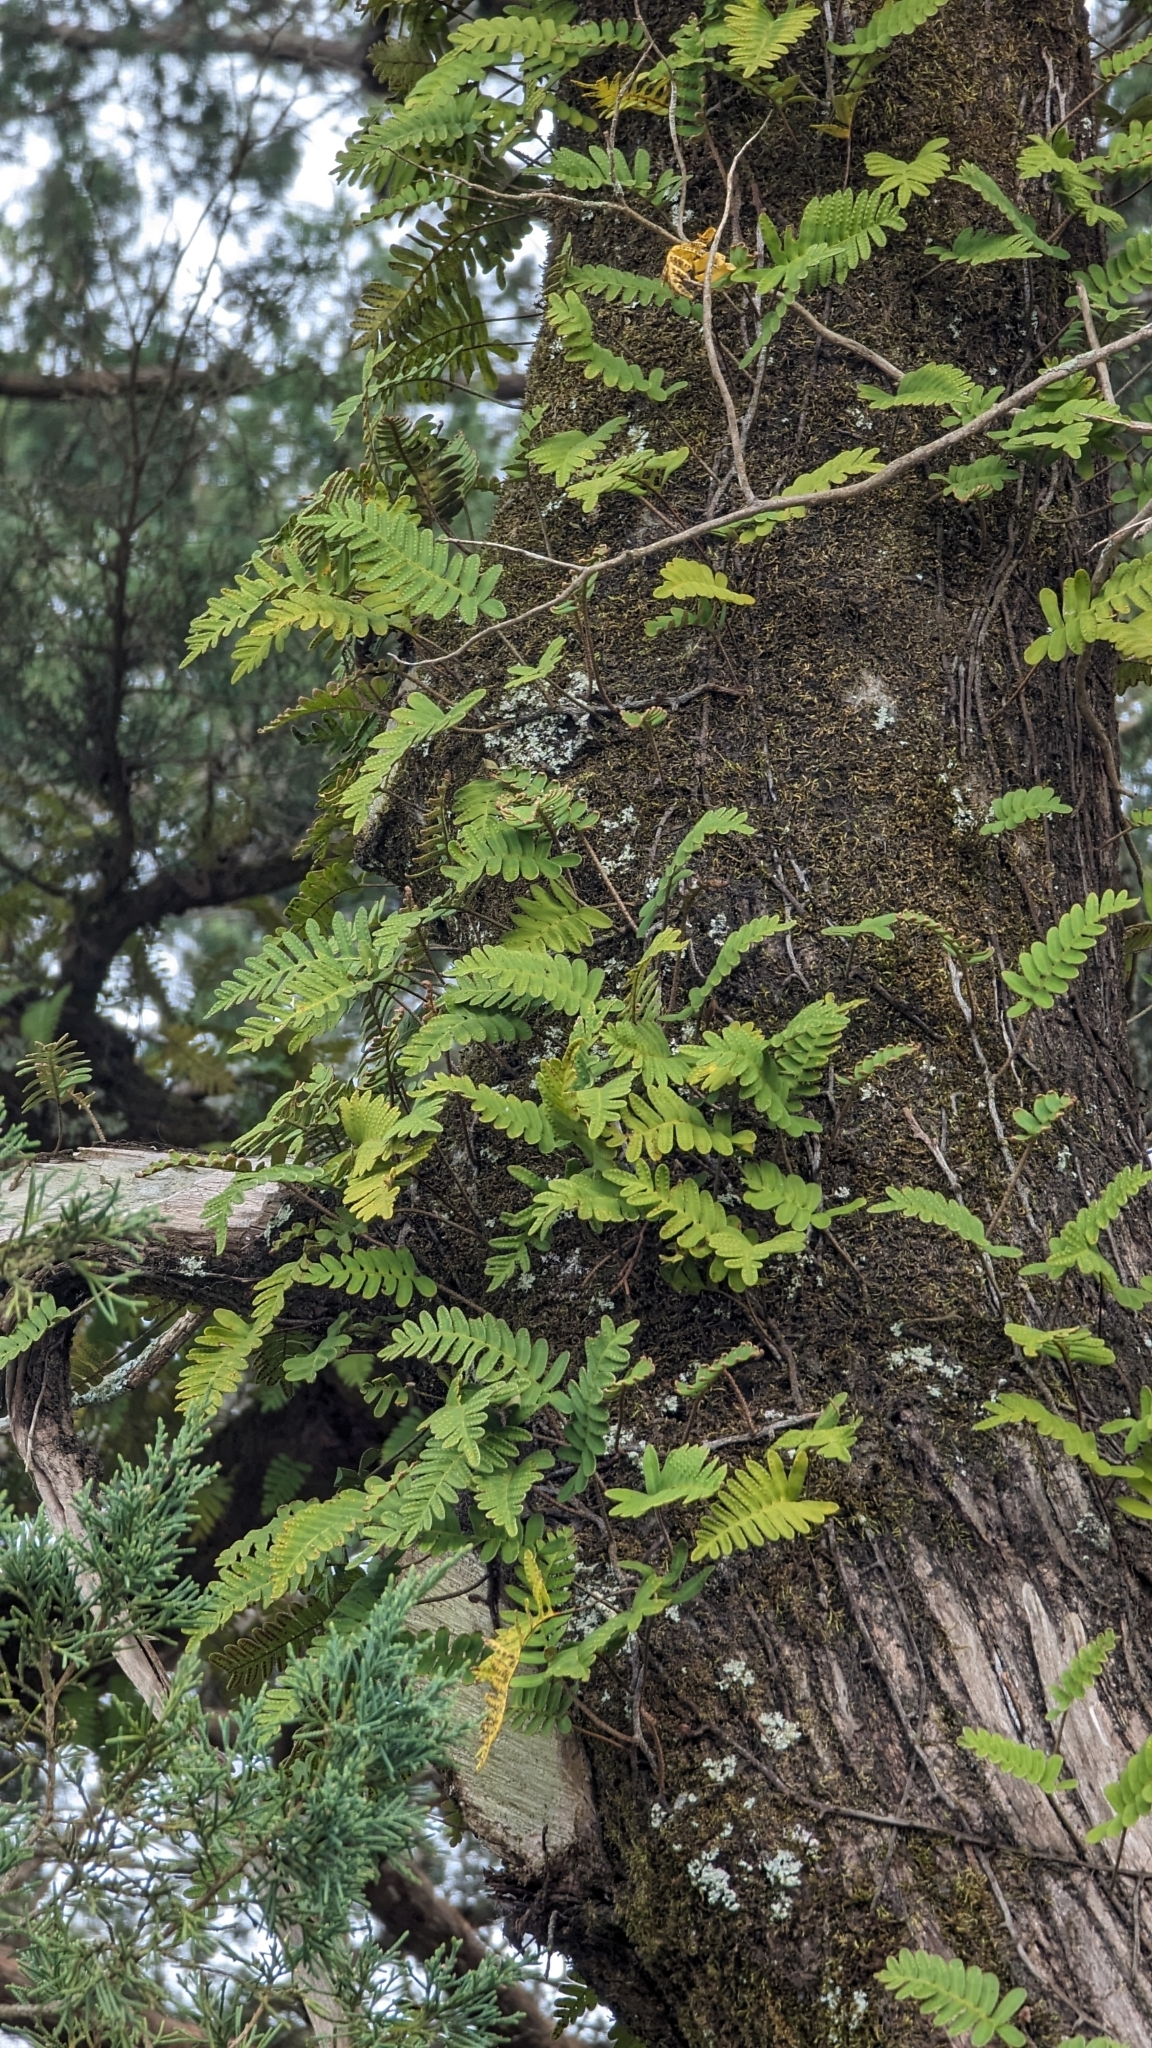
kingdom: Plantae
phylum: Tracheophyta
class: Polypodiopsida
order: Polypodiales
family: Polypodiaceae
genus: Pleopeltis
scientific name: Pleopeltis michauxiana
